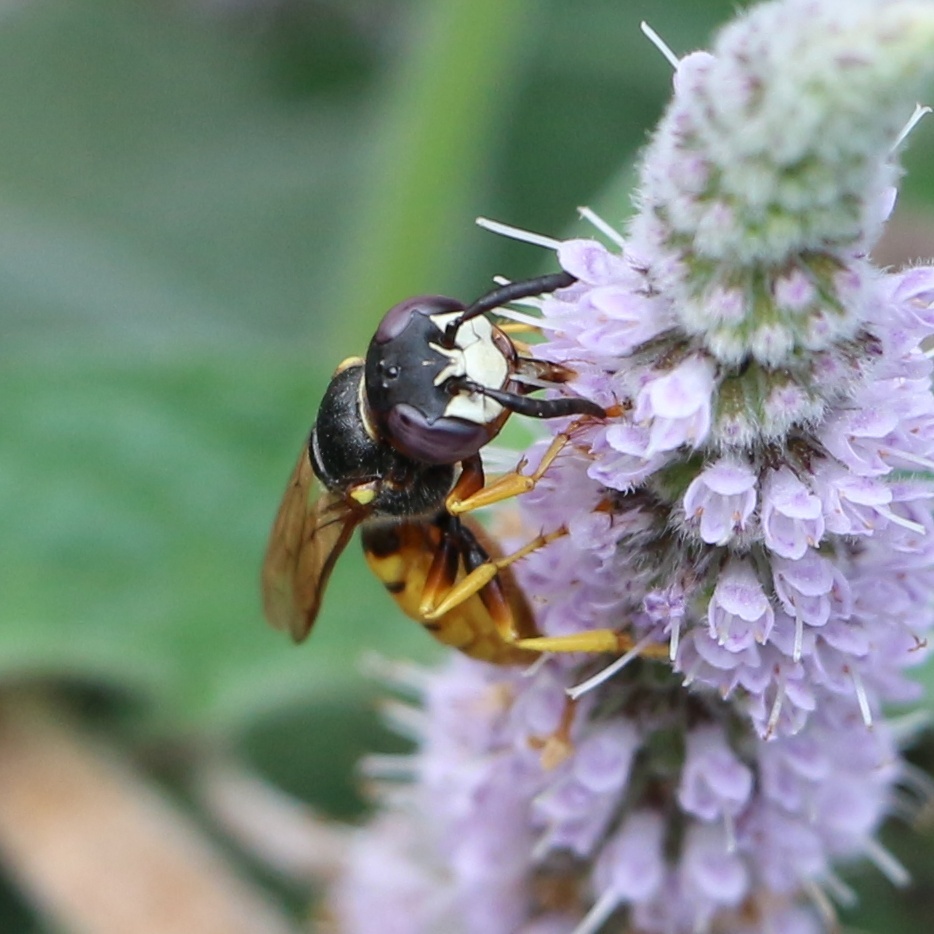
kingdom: Animalia
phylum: Arthropoda
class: Insecta
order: Hymenoptera
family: Crabronidae
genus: Philanthus
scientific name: Philanthus triangulum
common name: Bee wolf
